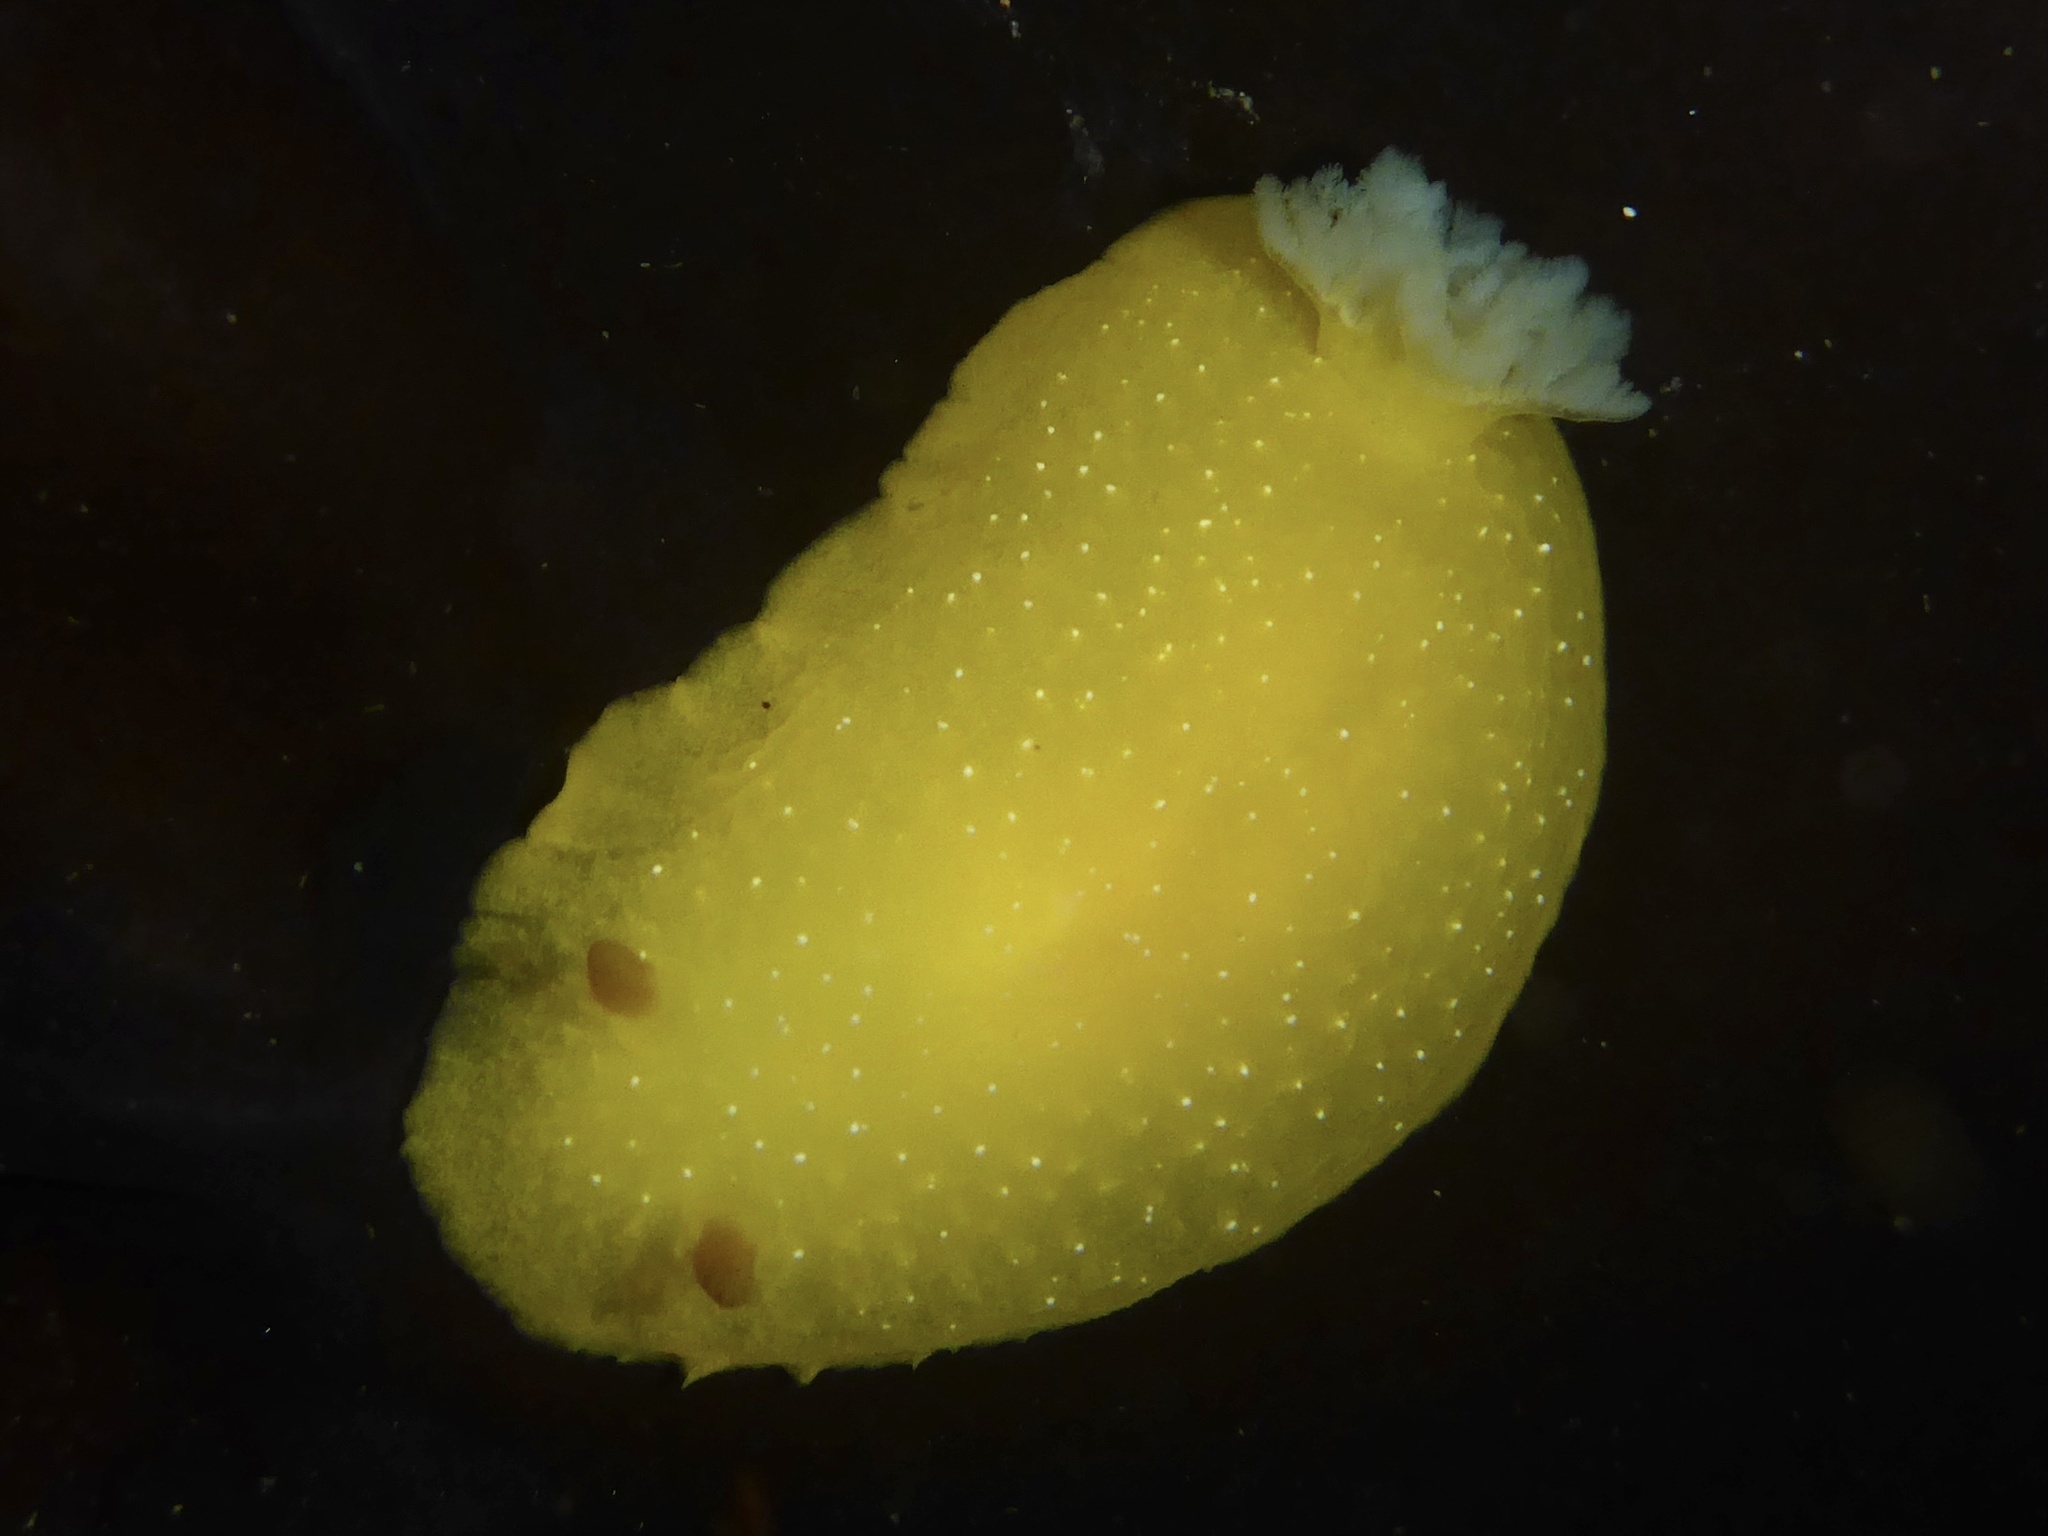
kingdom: Animalia
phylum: Mollusca
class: Gastropoda
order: Nudibranchia
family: Dendrodorididae
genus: Doriopsilla
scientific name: Doriopsilla fulva
